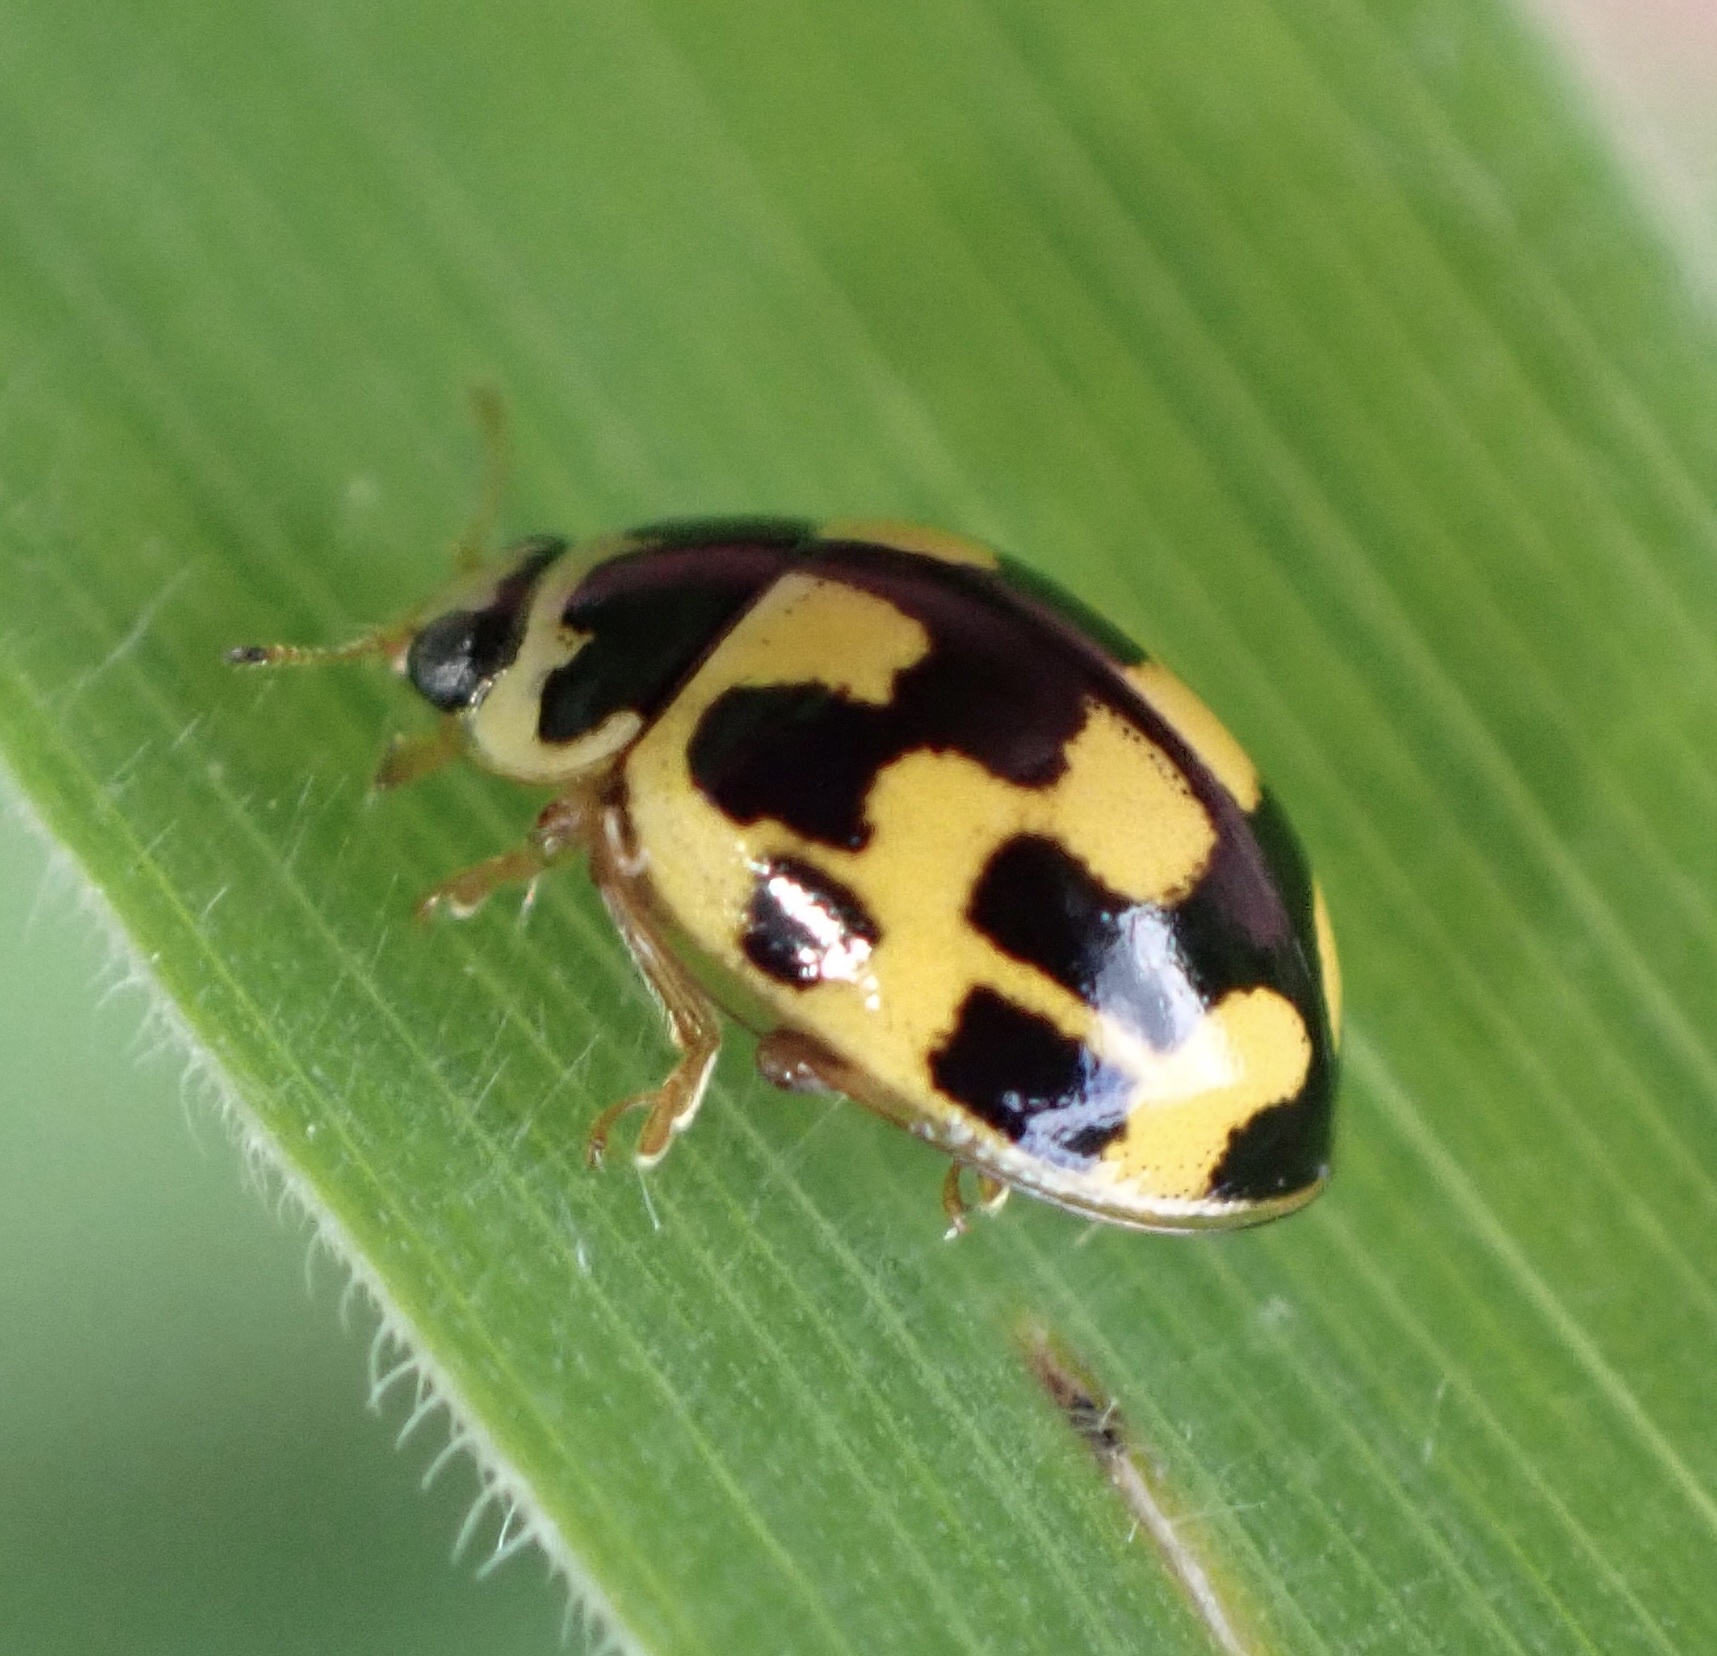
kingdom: Animalia
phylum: Arthropoda
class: Insecta
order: Coleoptera
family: Coccinellidae
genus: Propylaea
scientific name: Propylaea quatuordecimpunctata
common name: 14-spotted ladybird beetle
